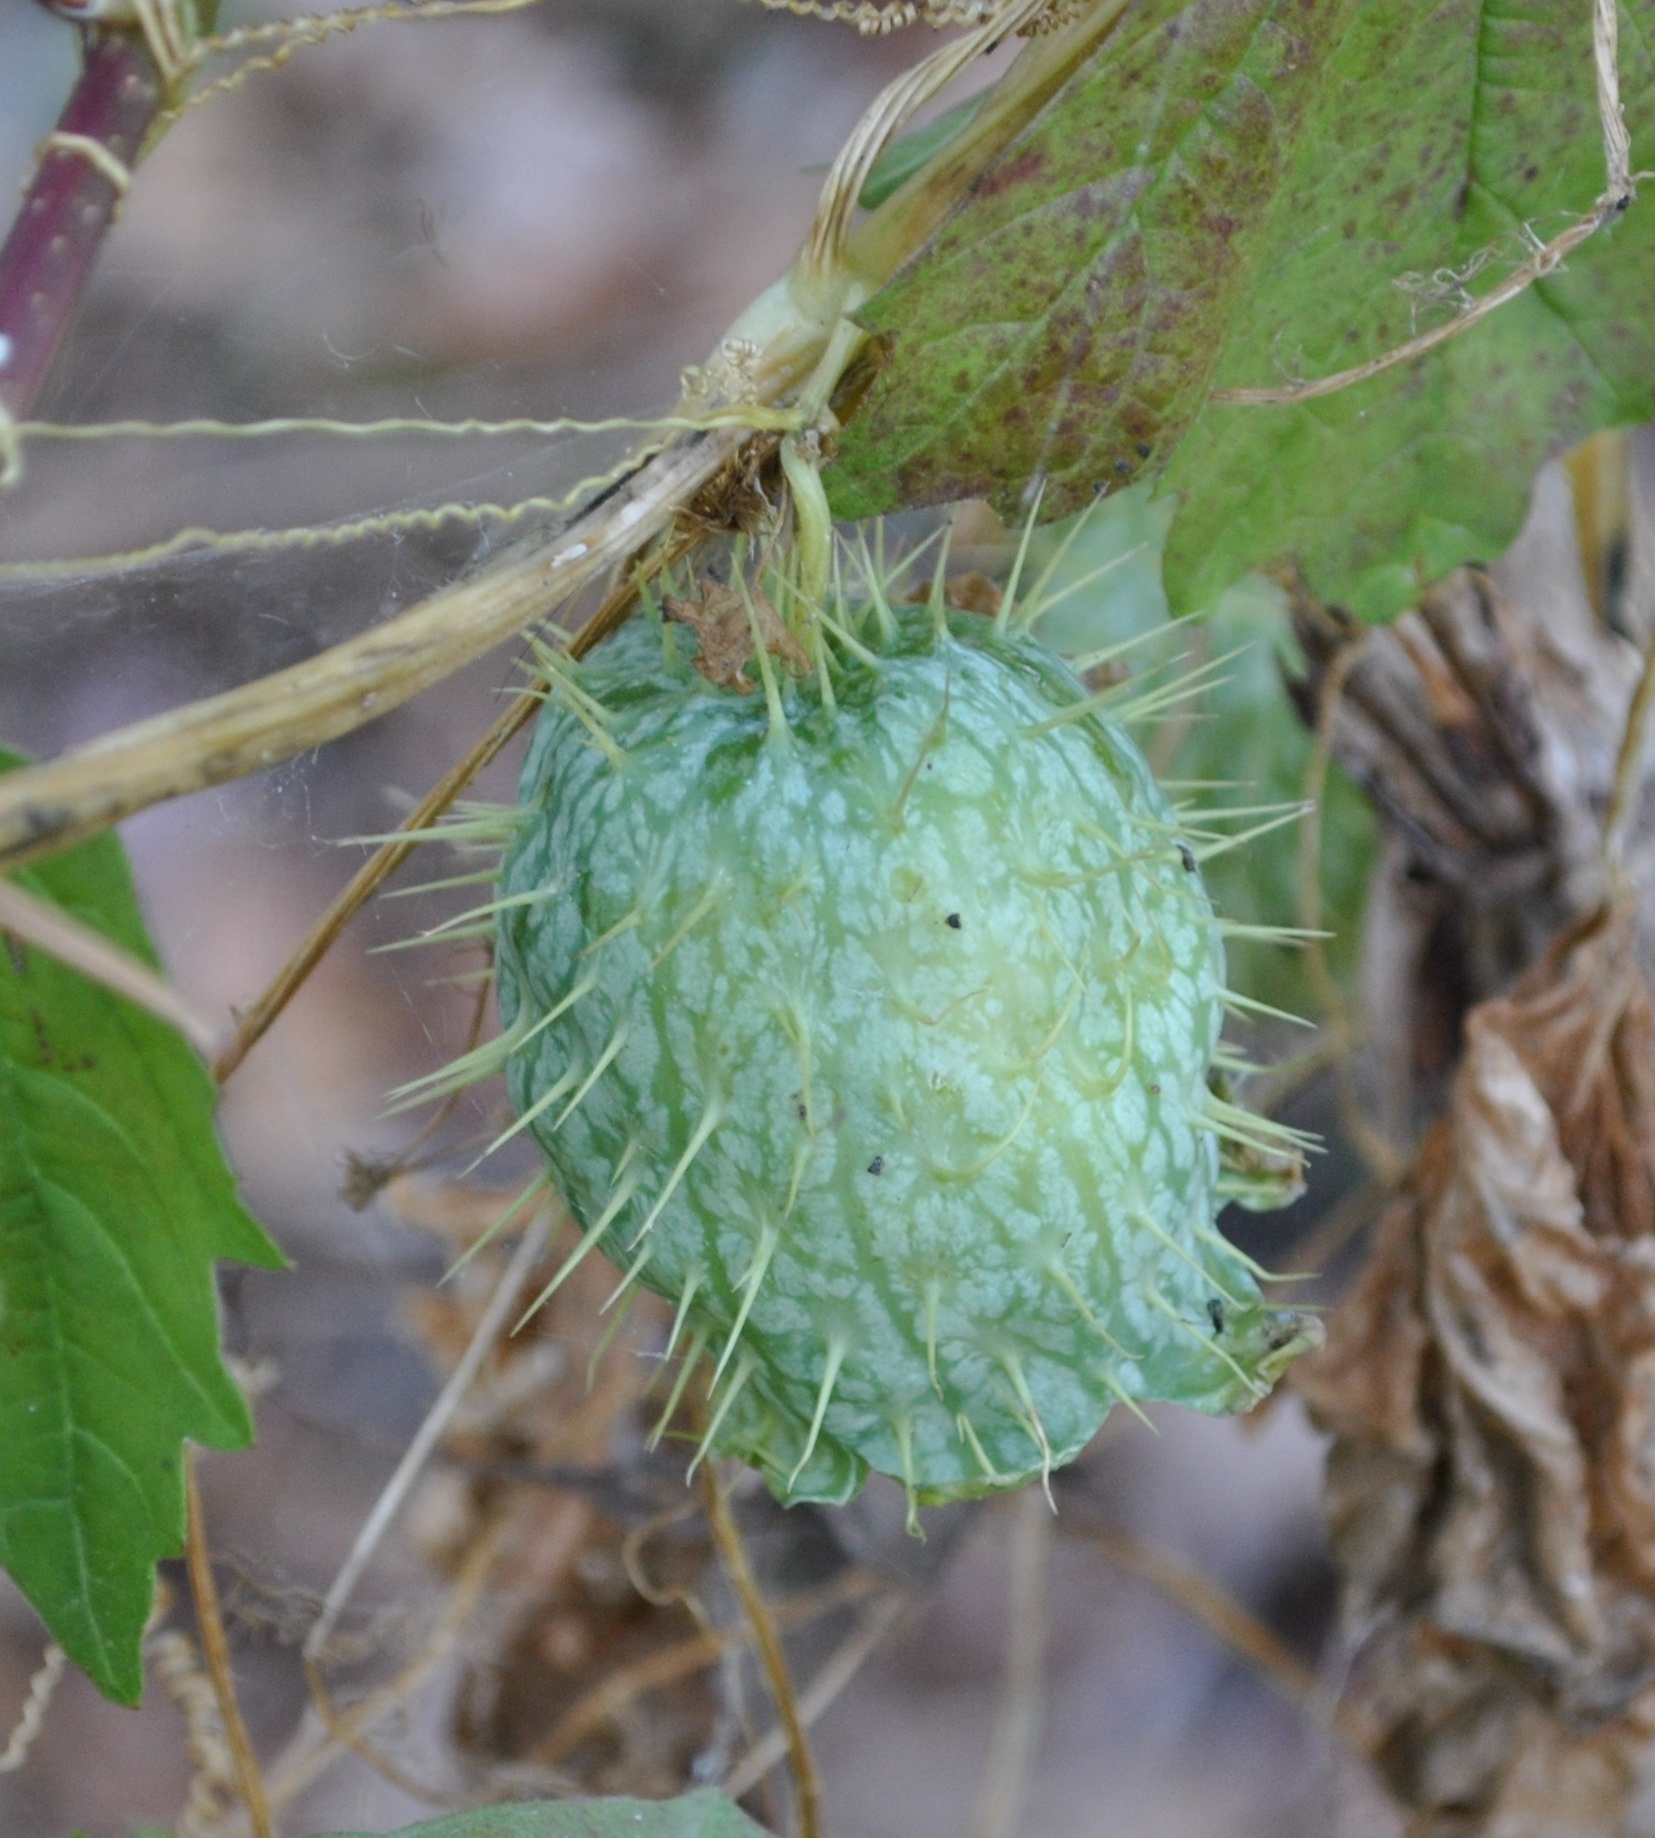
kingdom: Plantae
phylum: Tracheophyta
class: Magnoliopsida
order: Cucurbitales
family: Cucurbitaceae
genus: Echinocystis
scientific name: Echinocystis lobata
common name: Wild cucumber
